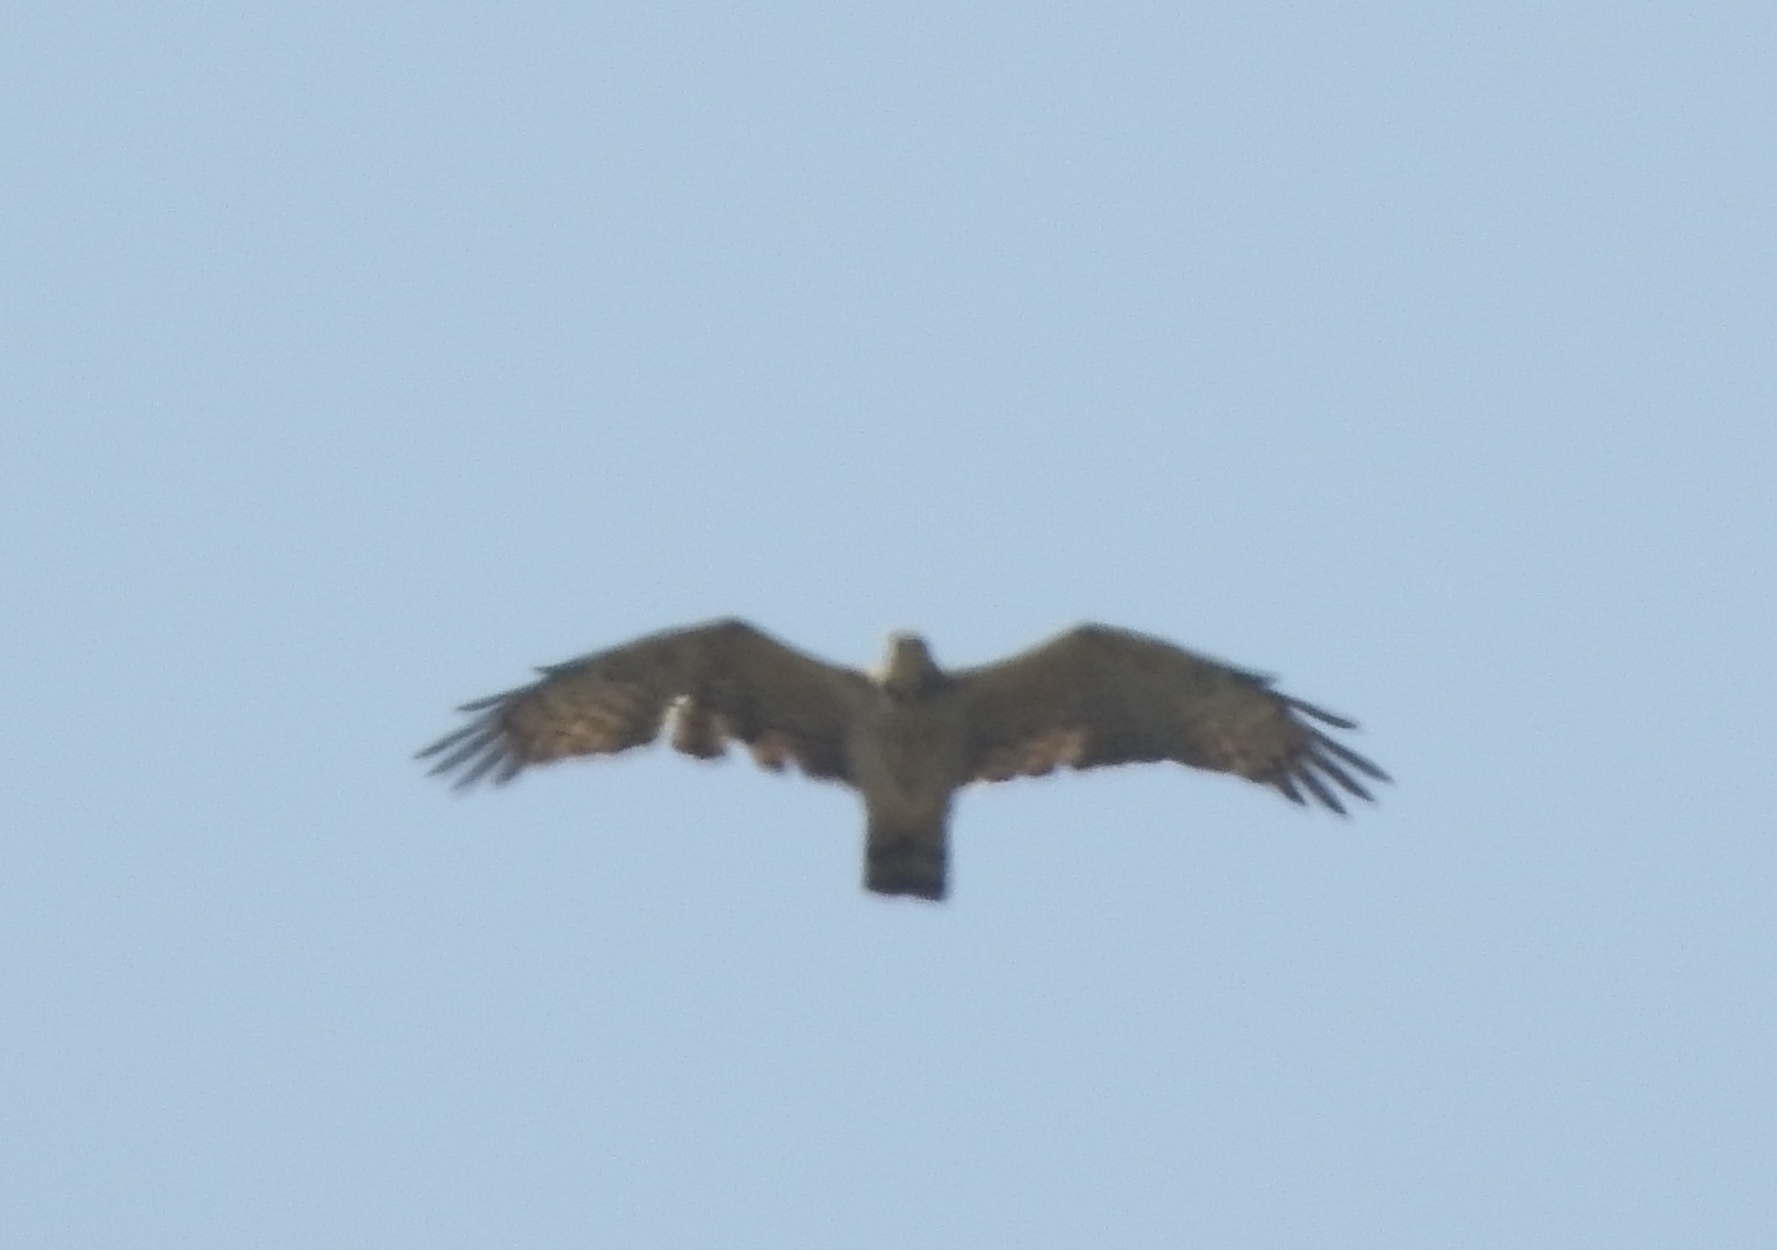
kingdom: Animalia
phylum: Chordata
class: Aves
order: Accipitriformes
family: Accipitridae
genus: Pernis
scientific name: Pernis ptilorhynchus
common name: Crested honey buzzard
